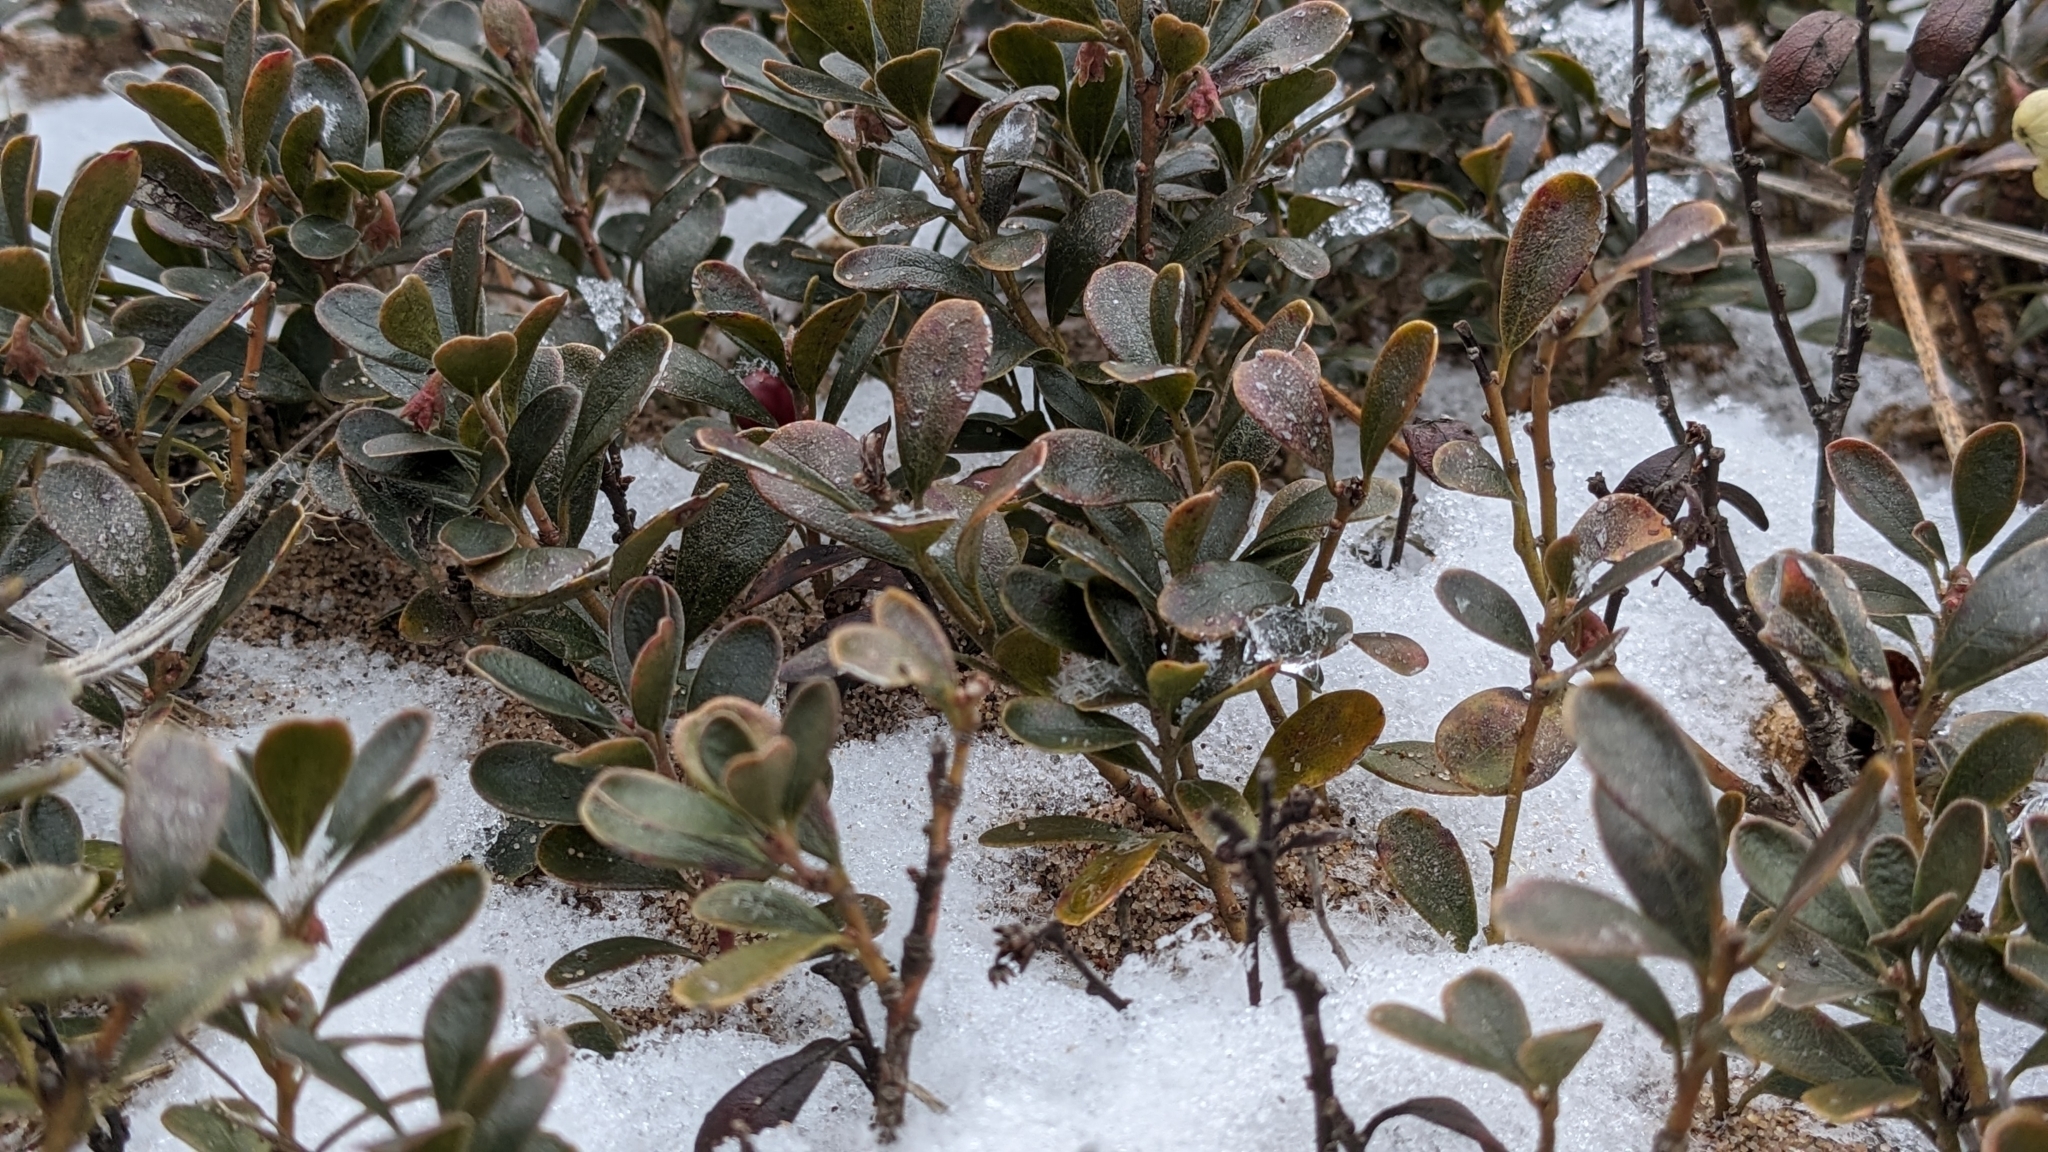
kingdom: Plantae
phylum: Tracheophyta
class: Magnoliopsida
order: Ericales
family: Ericaceae
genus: Arctostaphylos
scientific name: Arctostaphylos uva-ursi
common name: Bearberry
